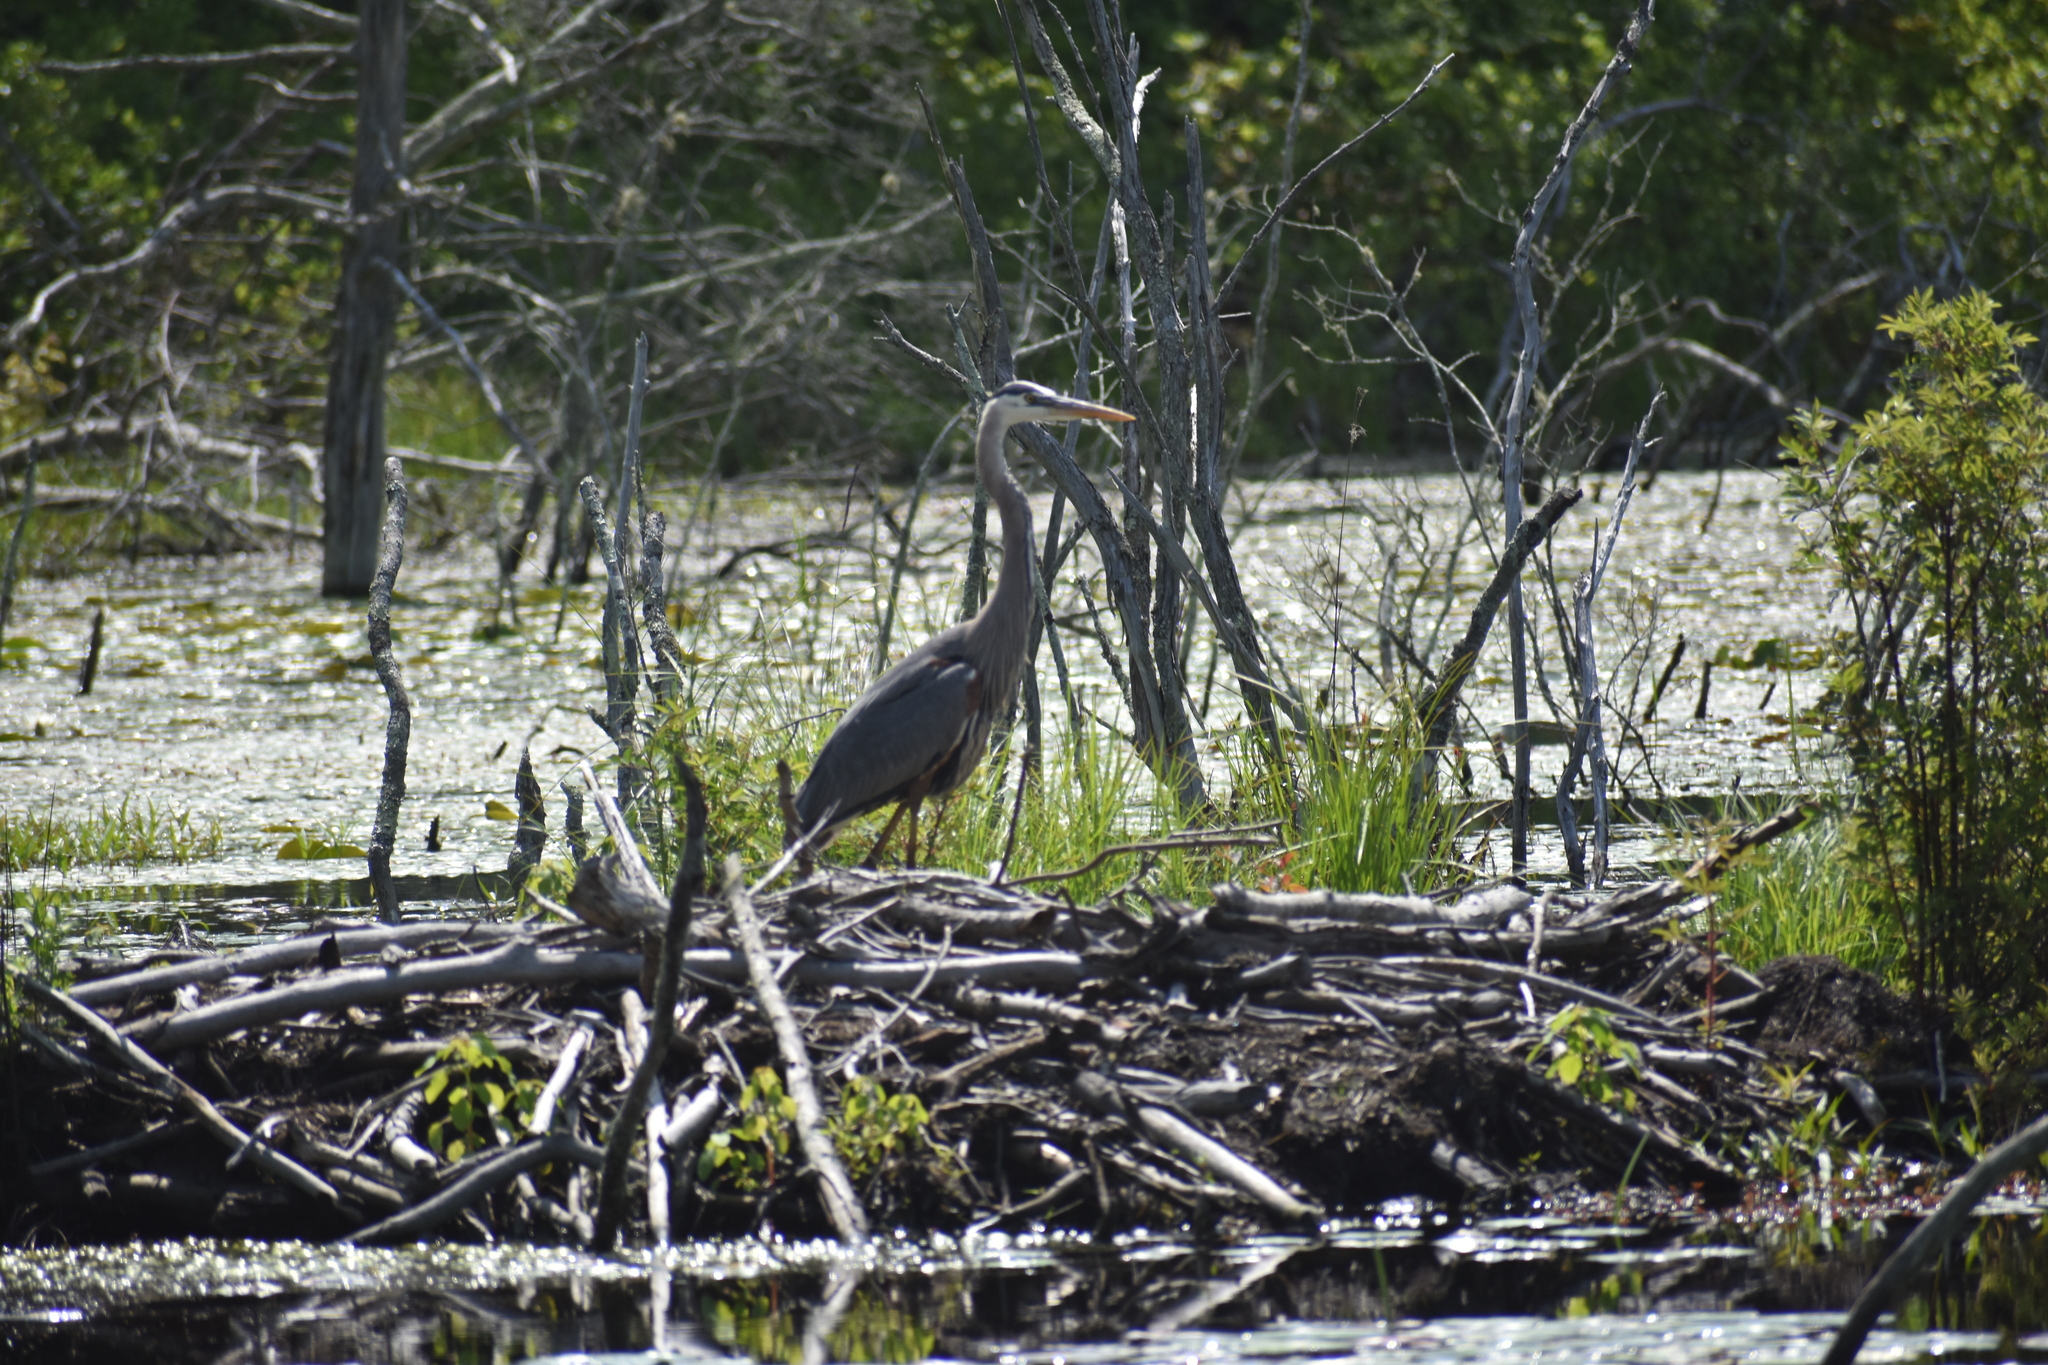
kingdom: Animalia
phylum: Chordata
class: Aves
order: Pelecaniformes
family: Ardeidae
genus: Ardea
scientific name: Ardea herodias
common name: Great blue heron
